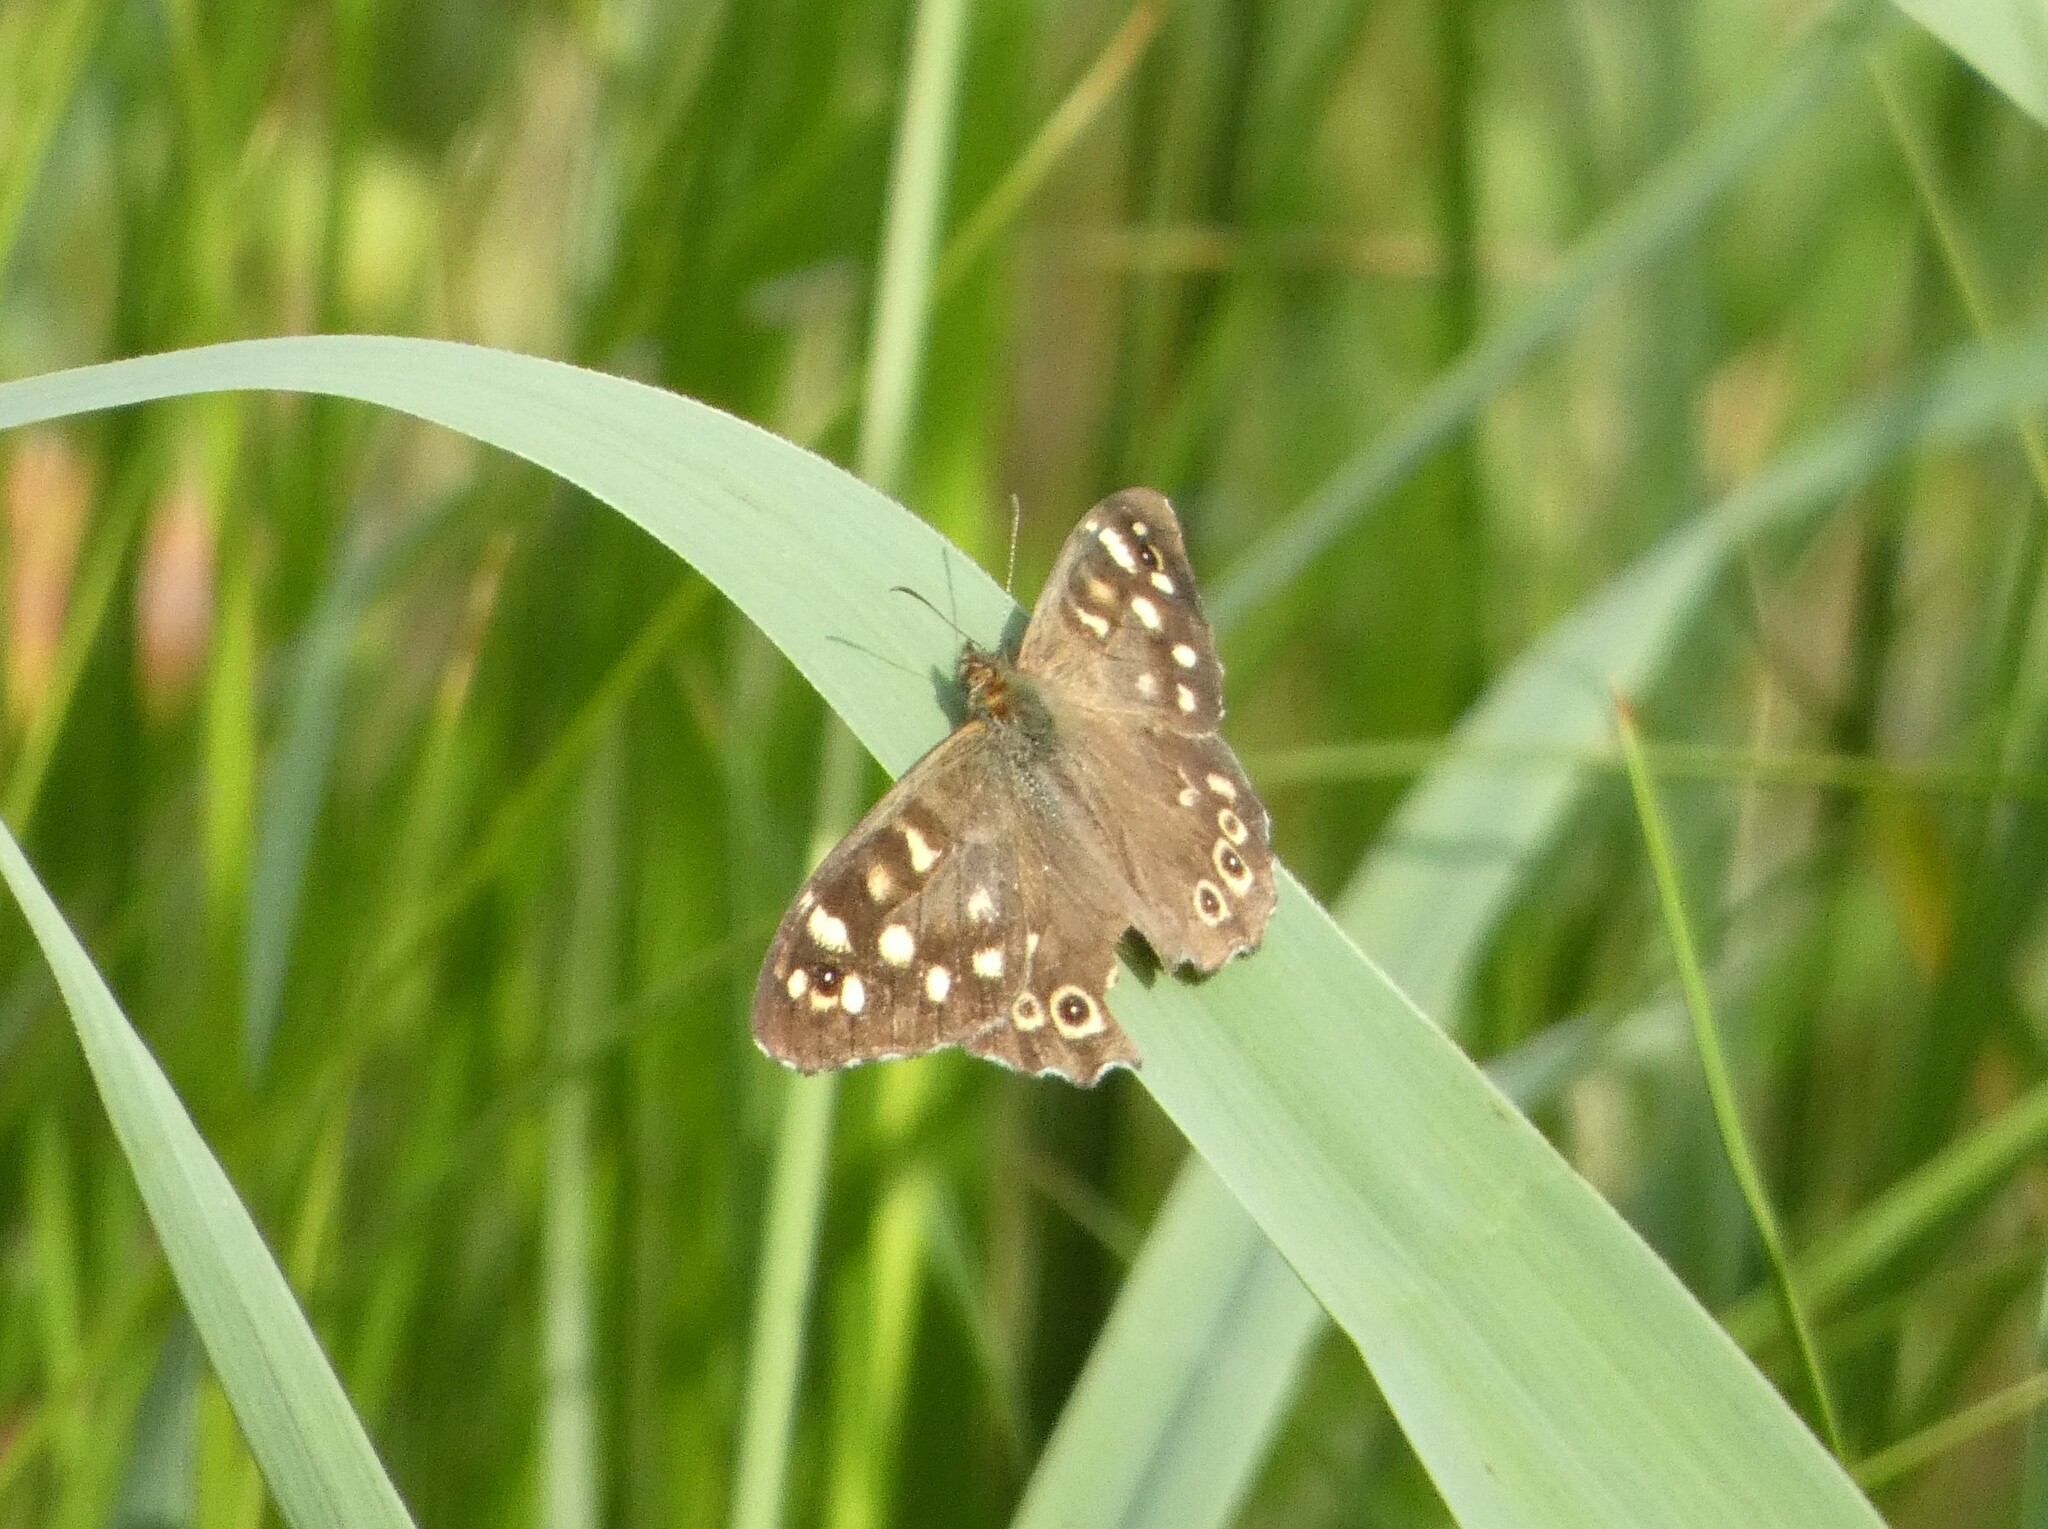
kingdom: Animalia
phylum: Arthropoda
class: Insecta
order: Lepidoptera
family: Nymphalidae
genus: Pararge
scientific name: Pararge aegeria
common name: Speckled wood
